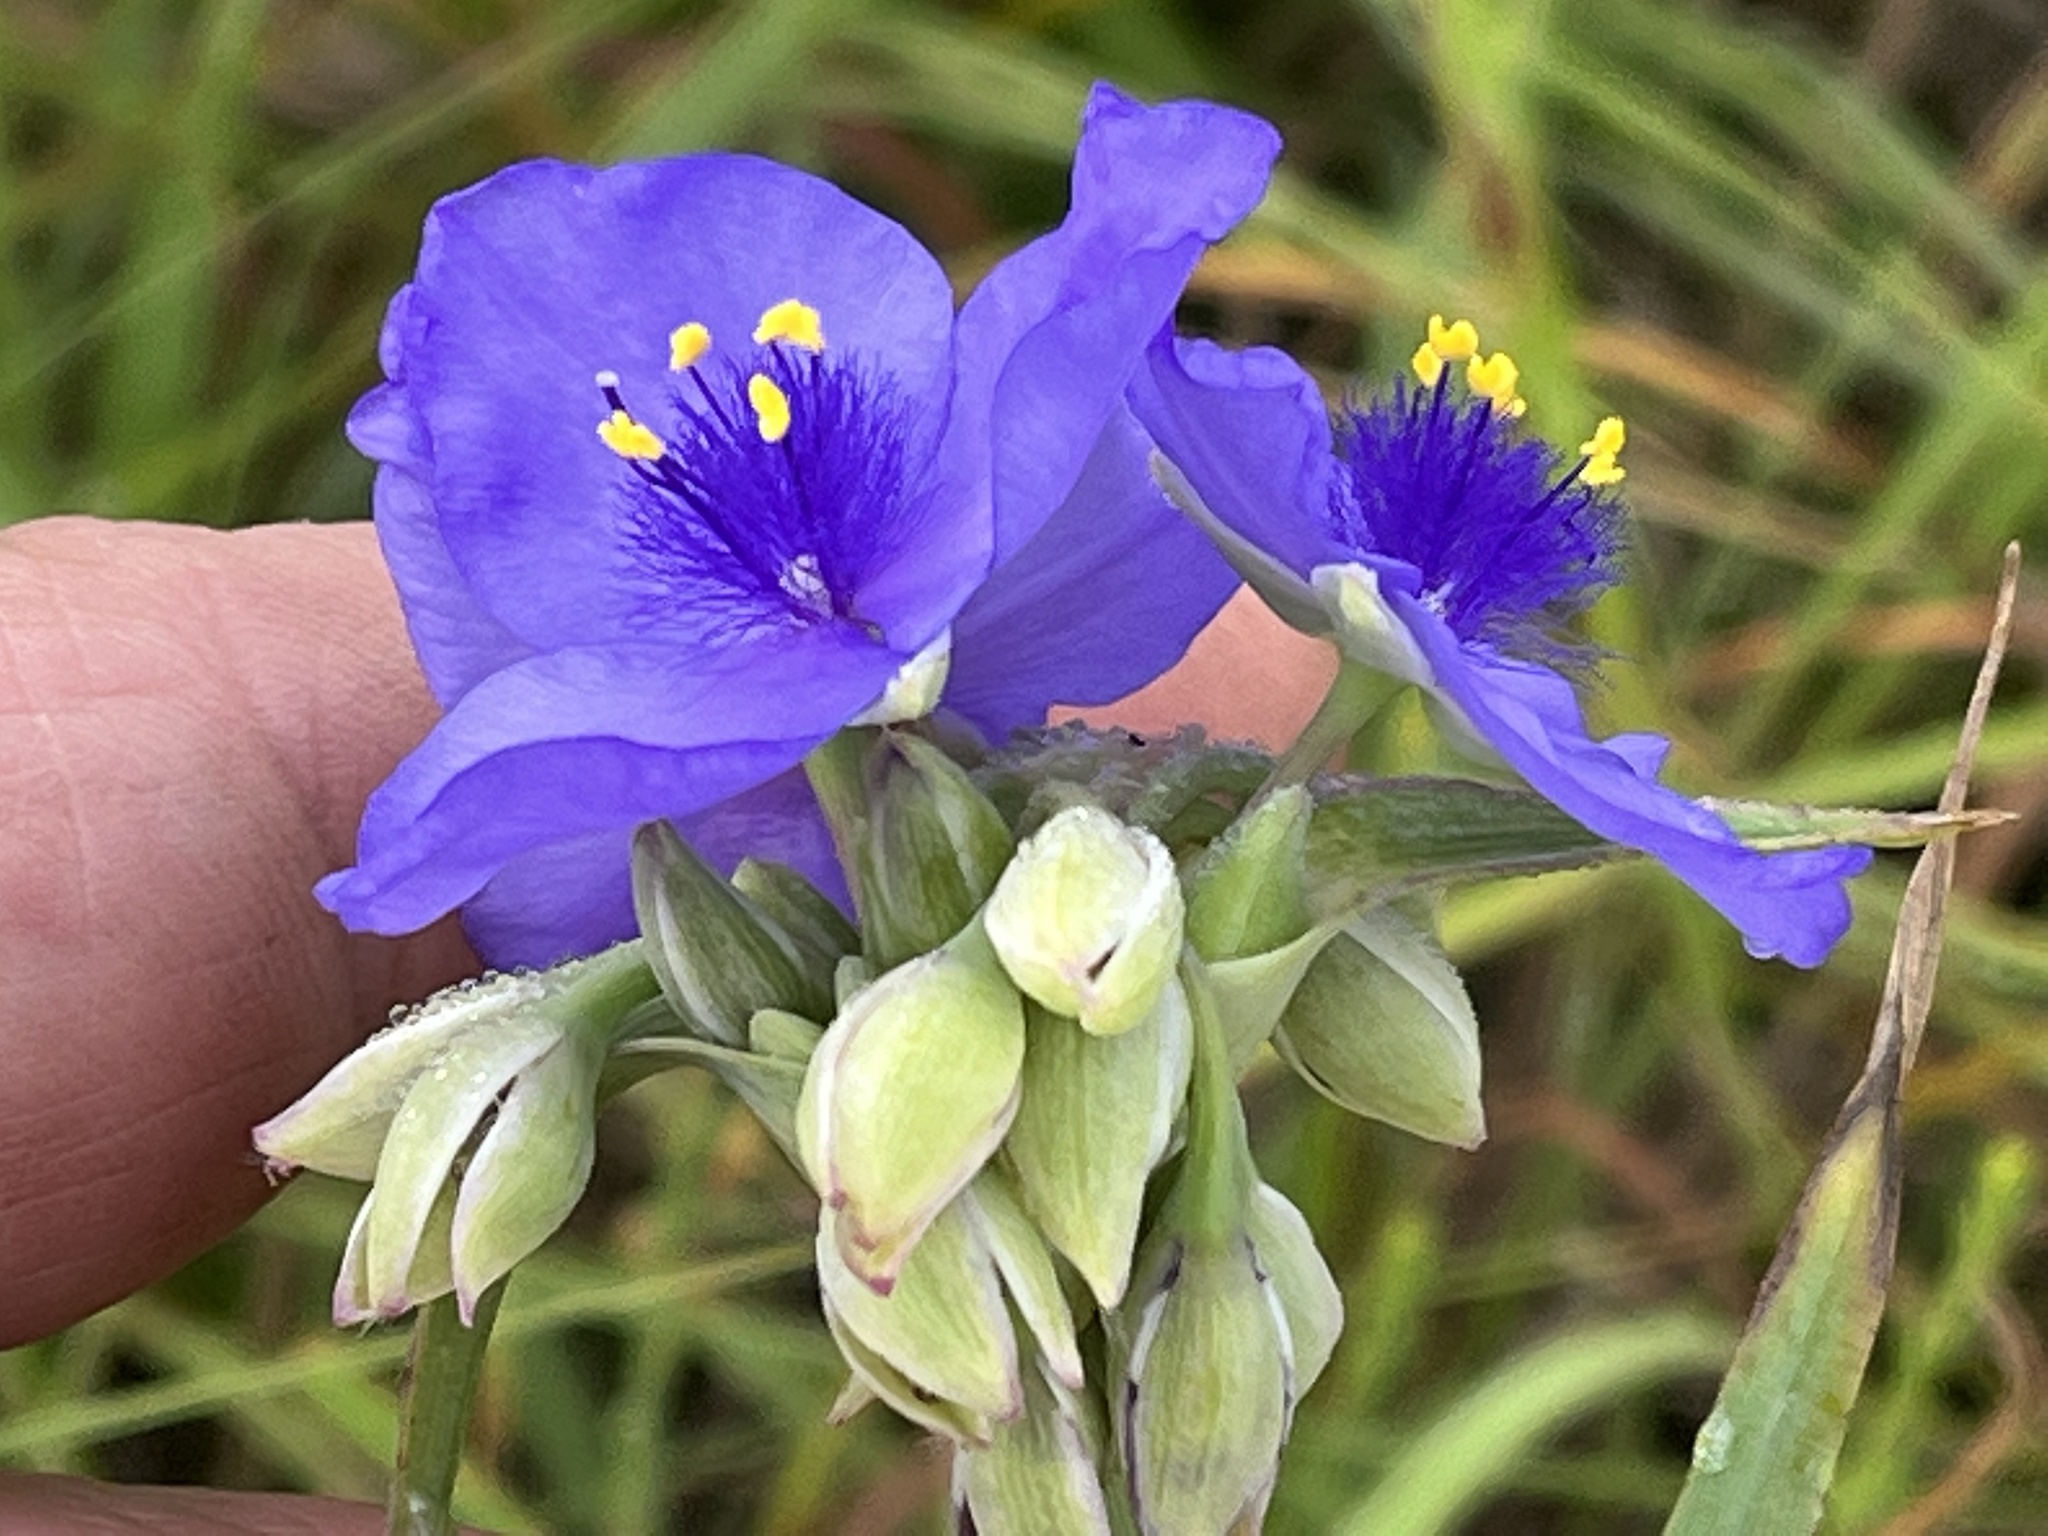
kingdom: Plantae
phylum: Tracheophyta
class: Liliopsida
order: Commelinales
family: Commelinaceae
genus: Tradescantia
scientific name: Tradescantia ohiensis
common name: Ohio spiderwort
